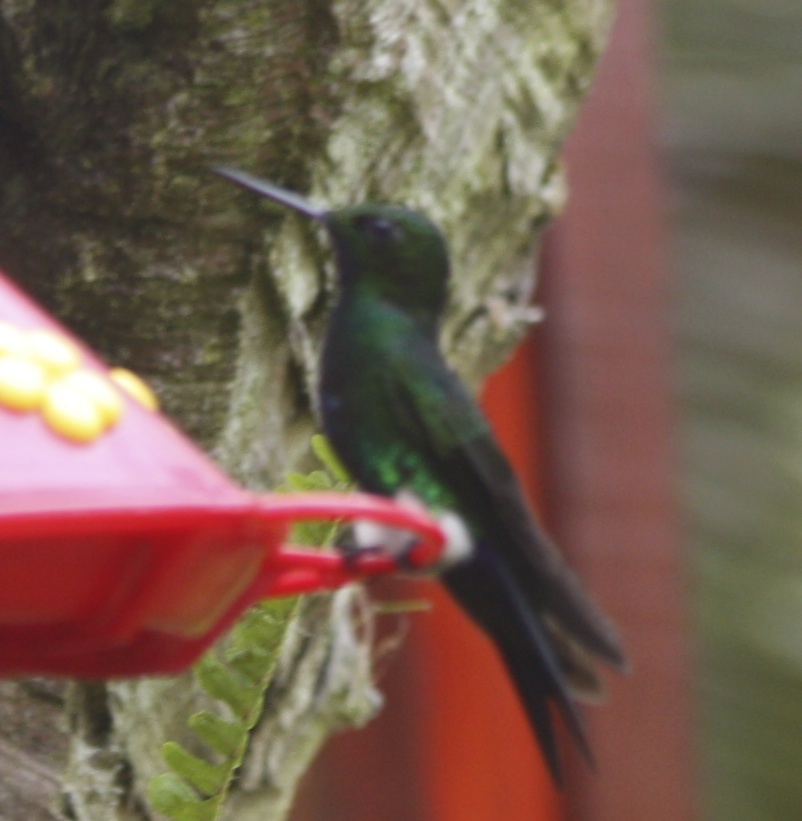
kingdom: Animalia
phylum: Chordata
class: Aves
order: Apodiformes
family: Trochilidae
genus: Eriocnemis
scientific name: Eriocnemis vestita
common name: Glowing puffleg
